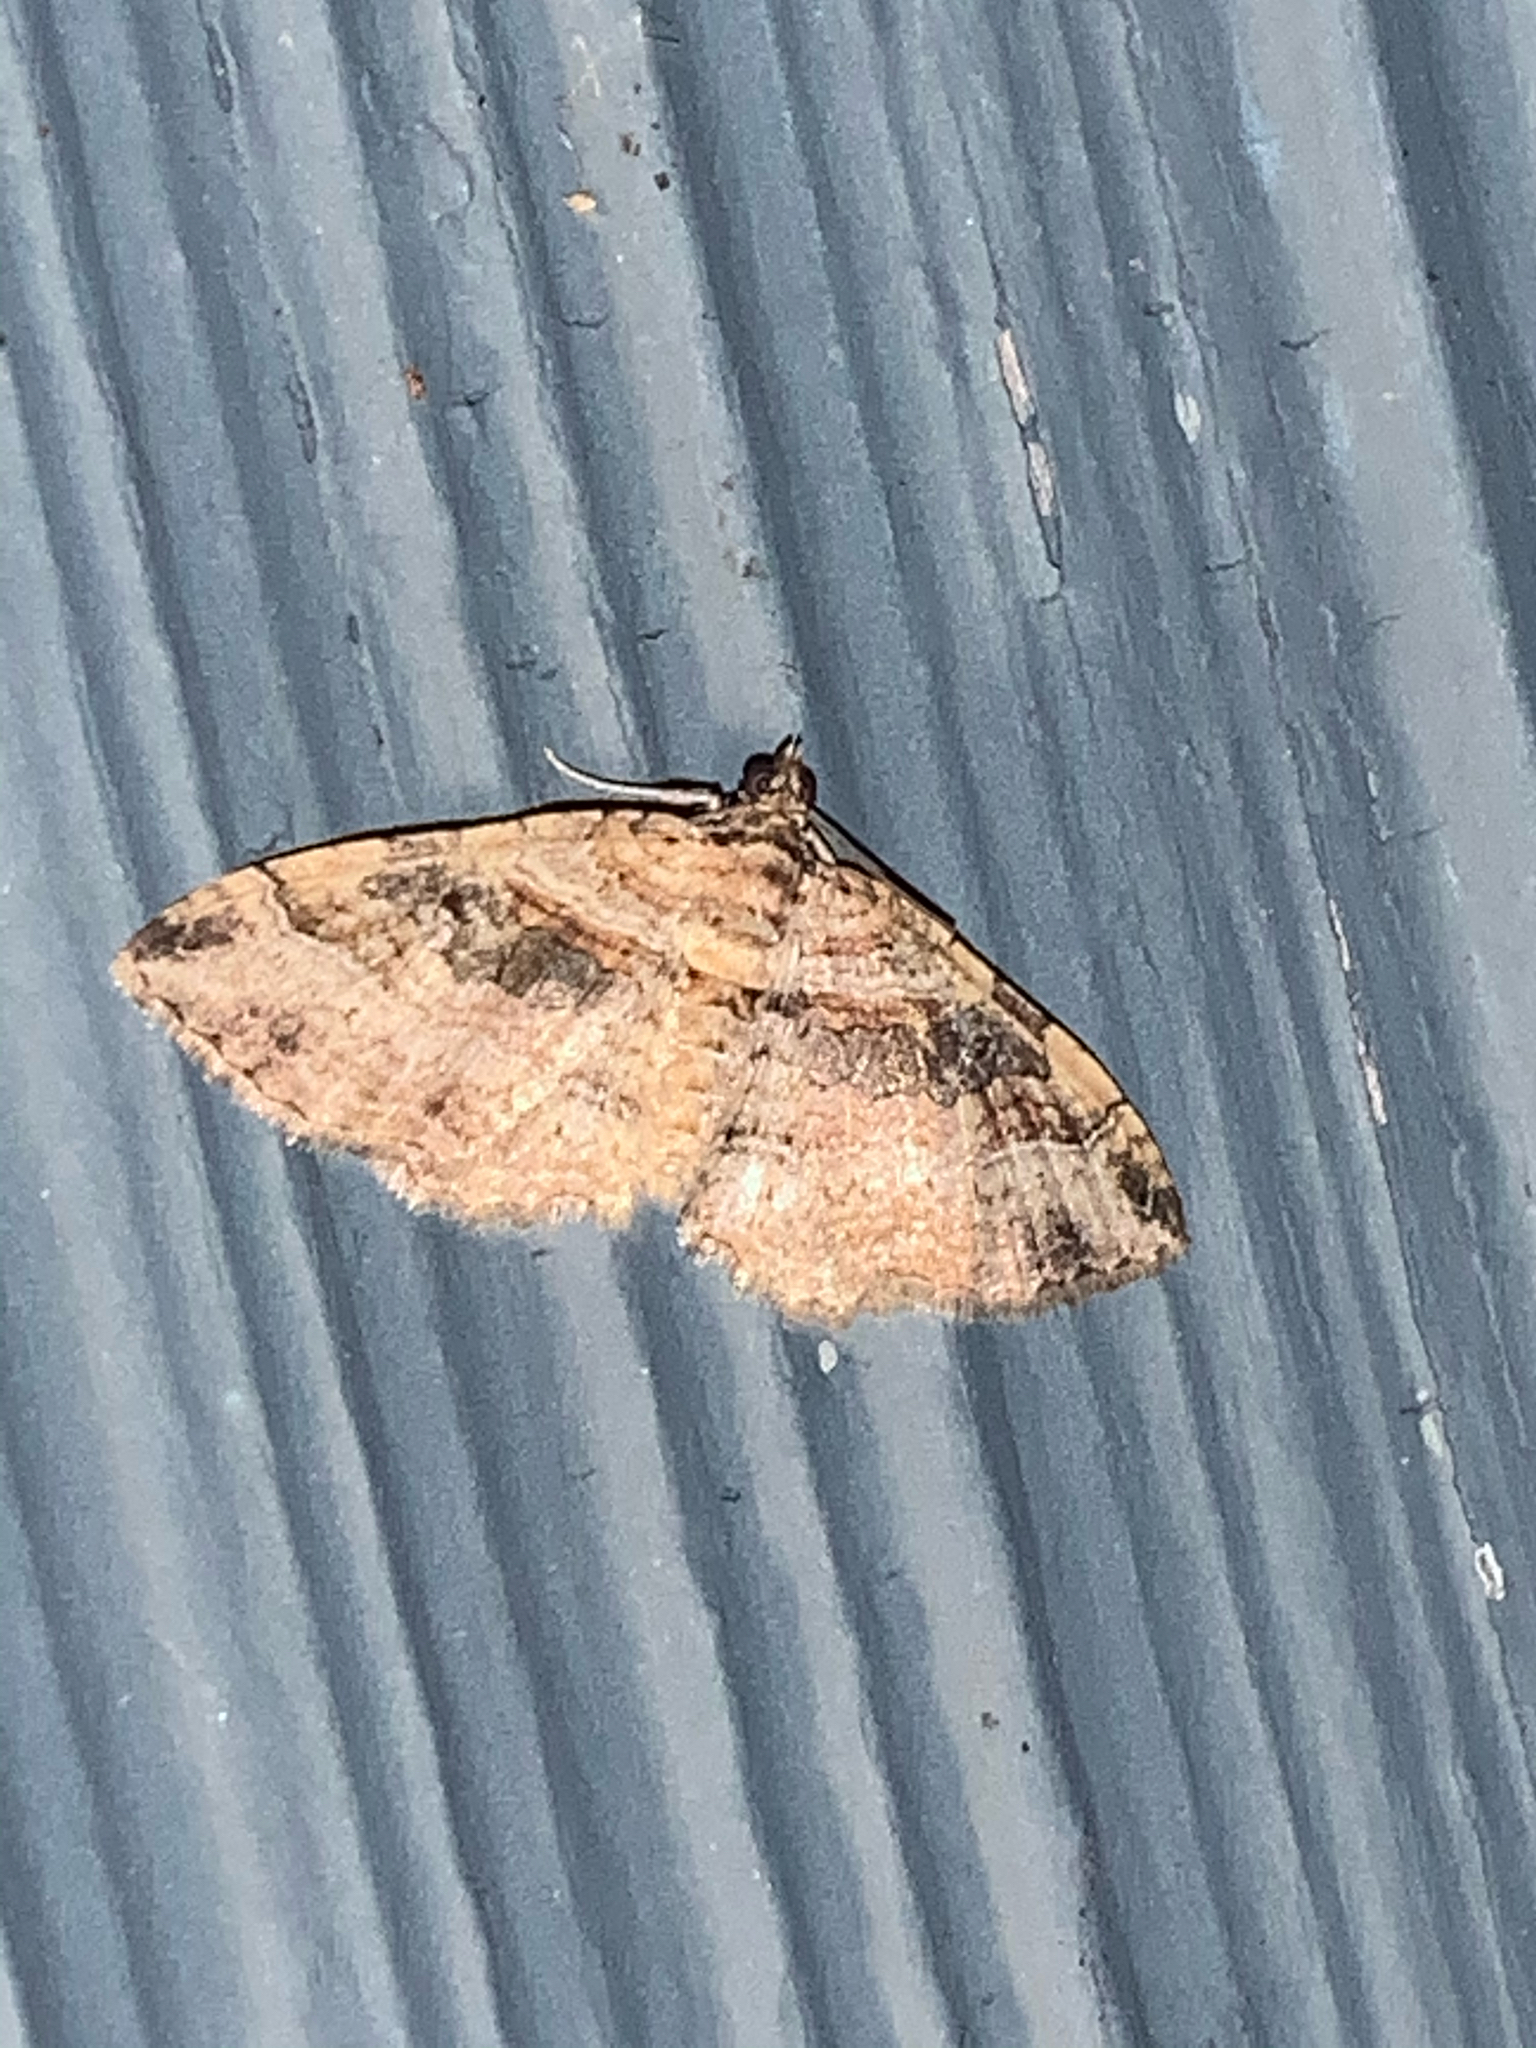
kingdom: Animalia
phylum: Arthropoda
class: Insecta
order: Lepidoptera
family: Geometridae
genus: Costaconvexa
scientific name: Costaconvexa centrostrigaria
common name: Bent-line carpet
